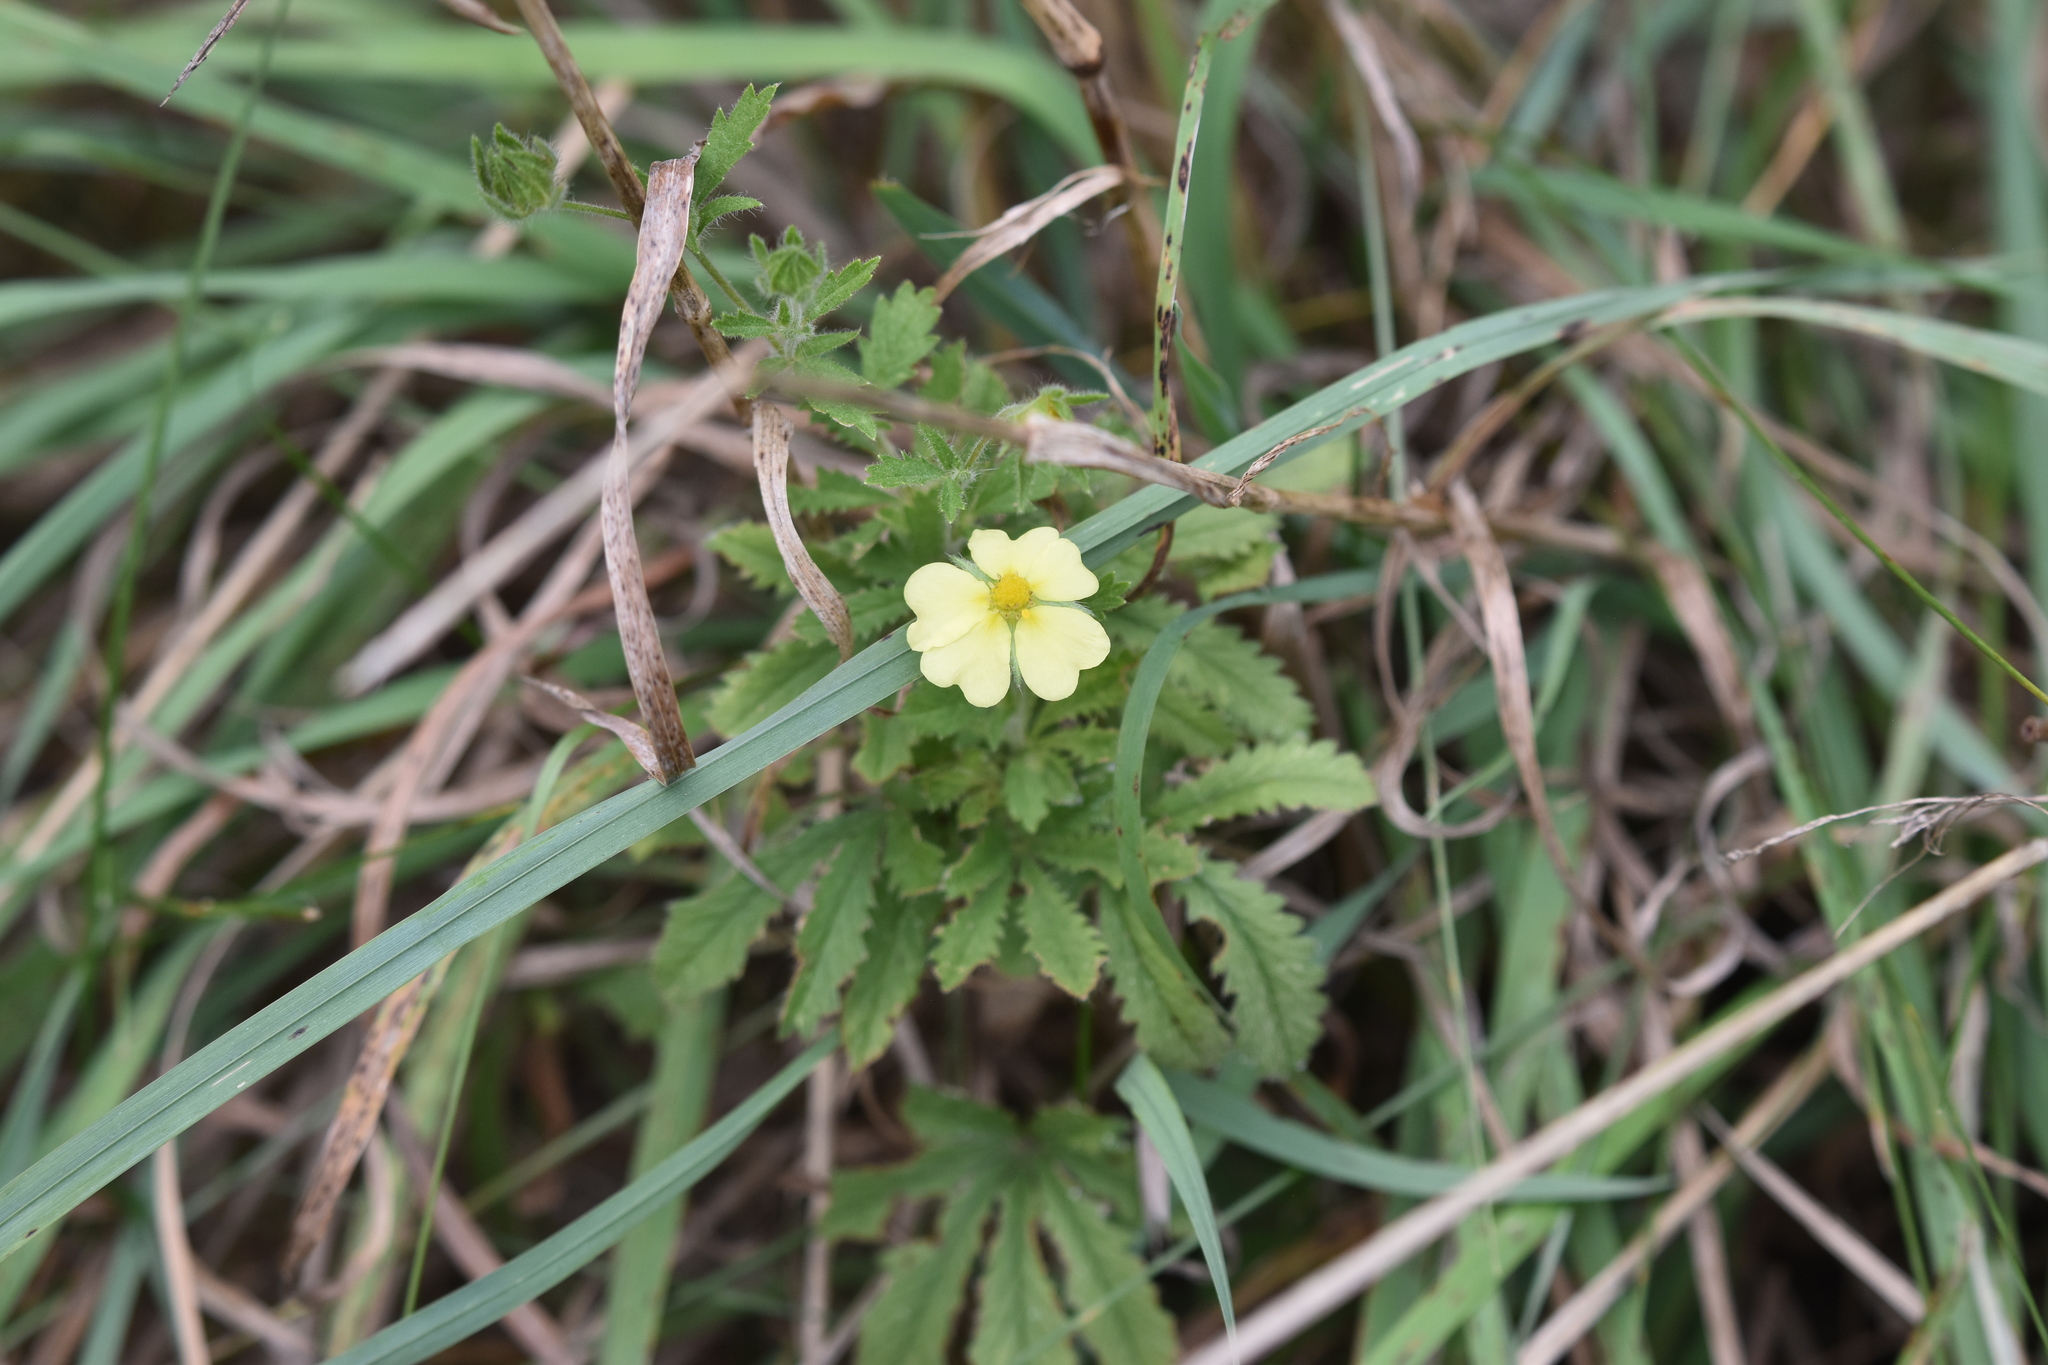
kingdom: Plantae
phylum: Tracheophyta
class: Magnoliopsida
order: Rosales
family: Rosaceae
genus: Potentilla
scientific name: Potentilla recta
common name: Sulphur cinquefoil
